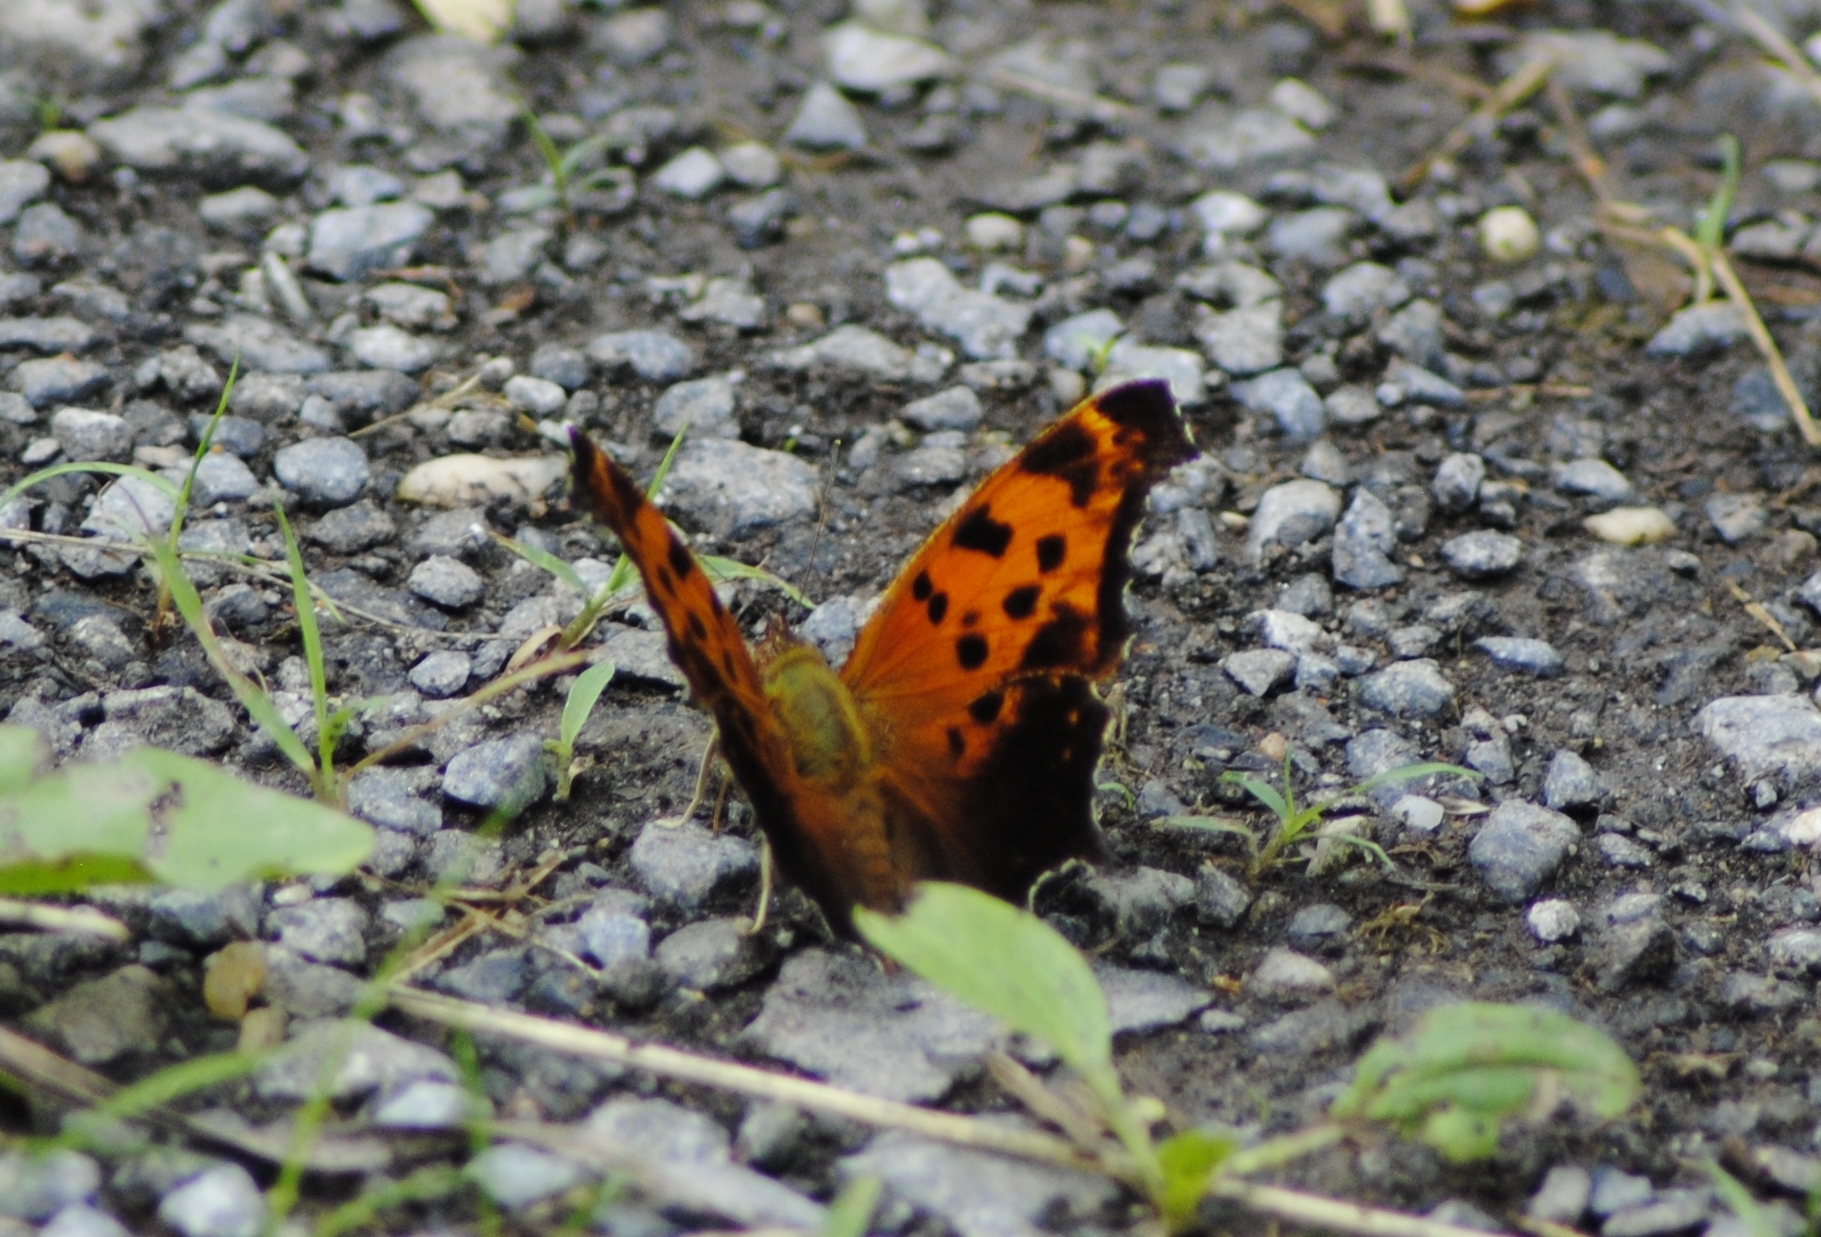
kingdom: Animalia
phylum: Arthropoda
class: Insecta
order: Lepidoptera
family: Nymphalidae
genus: Polygonia
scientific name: Polygonia comma
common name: Eastern comma
